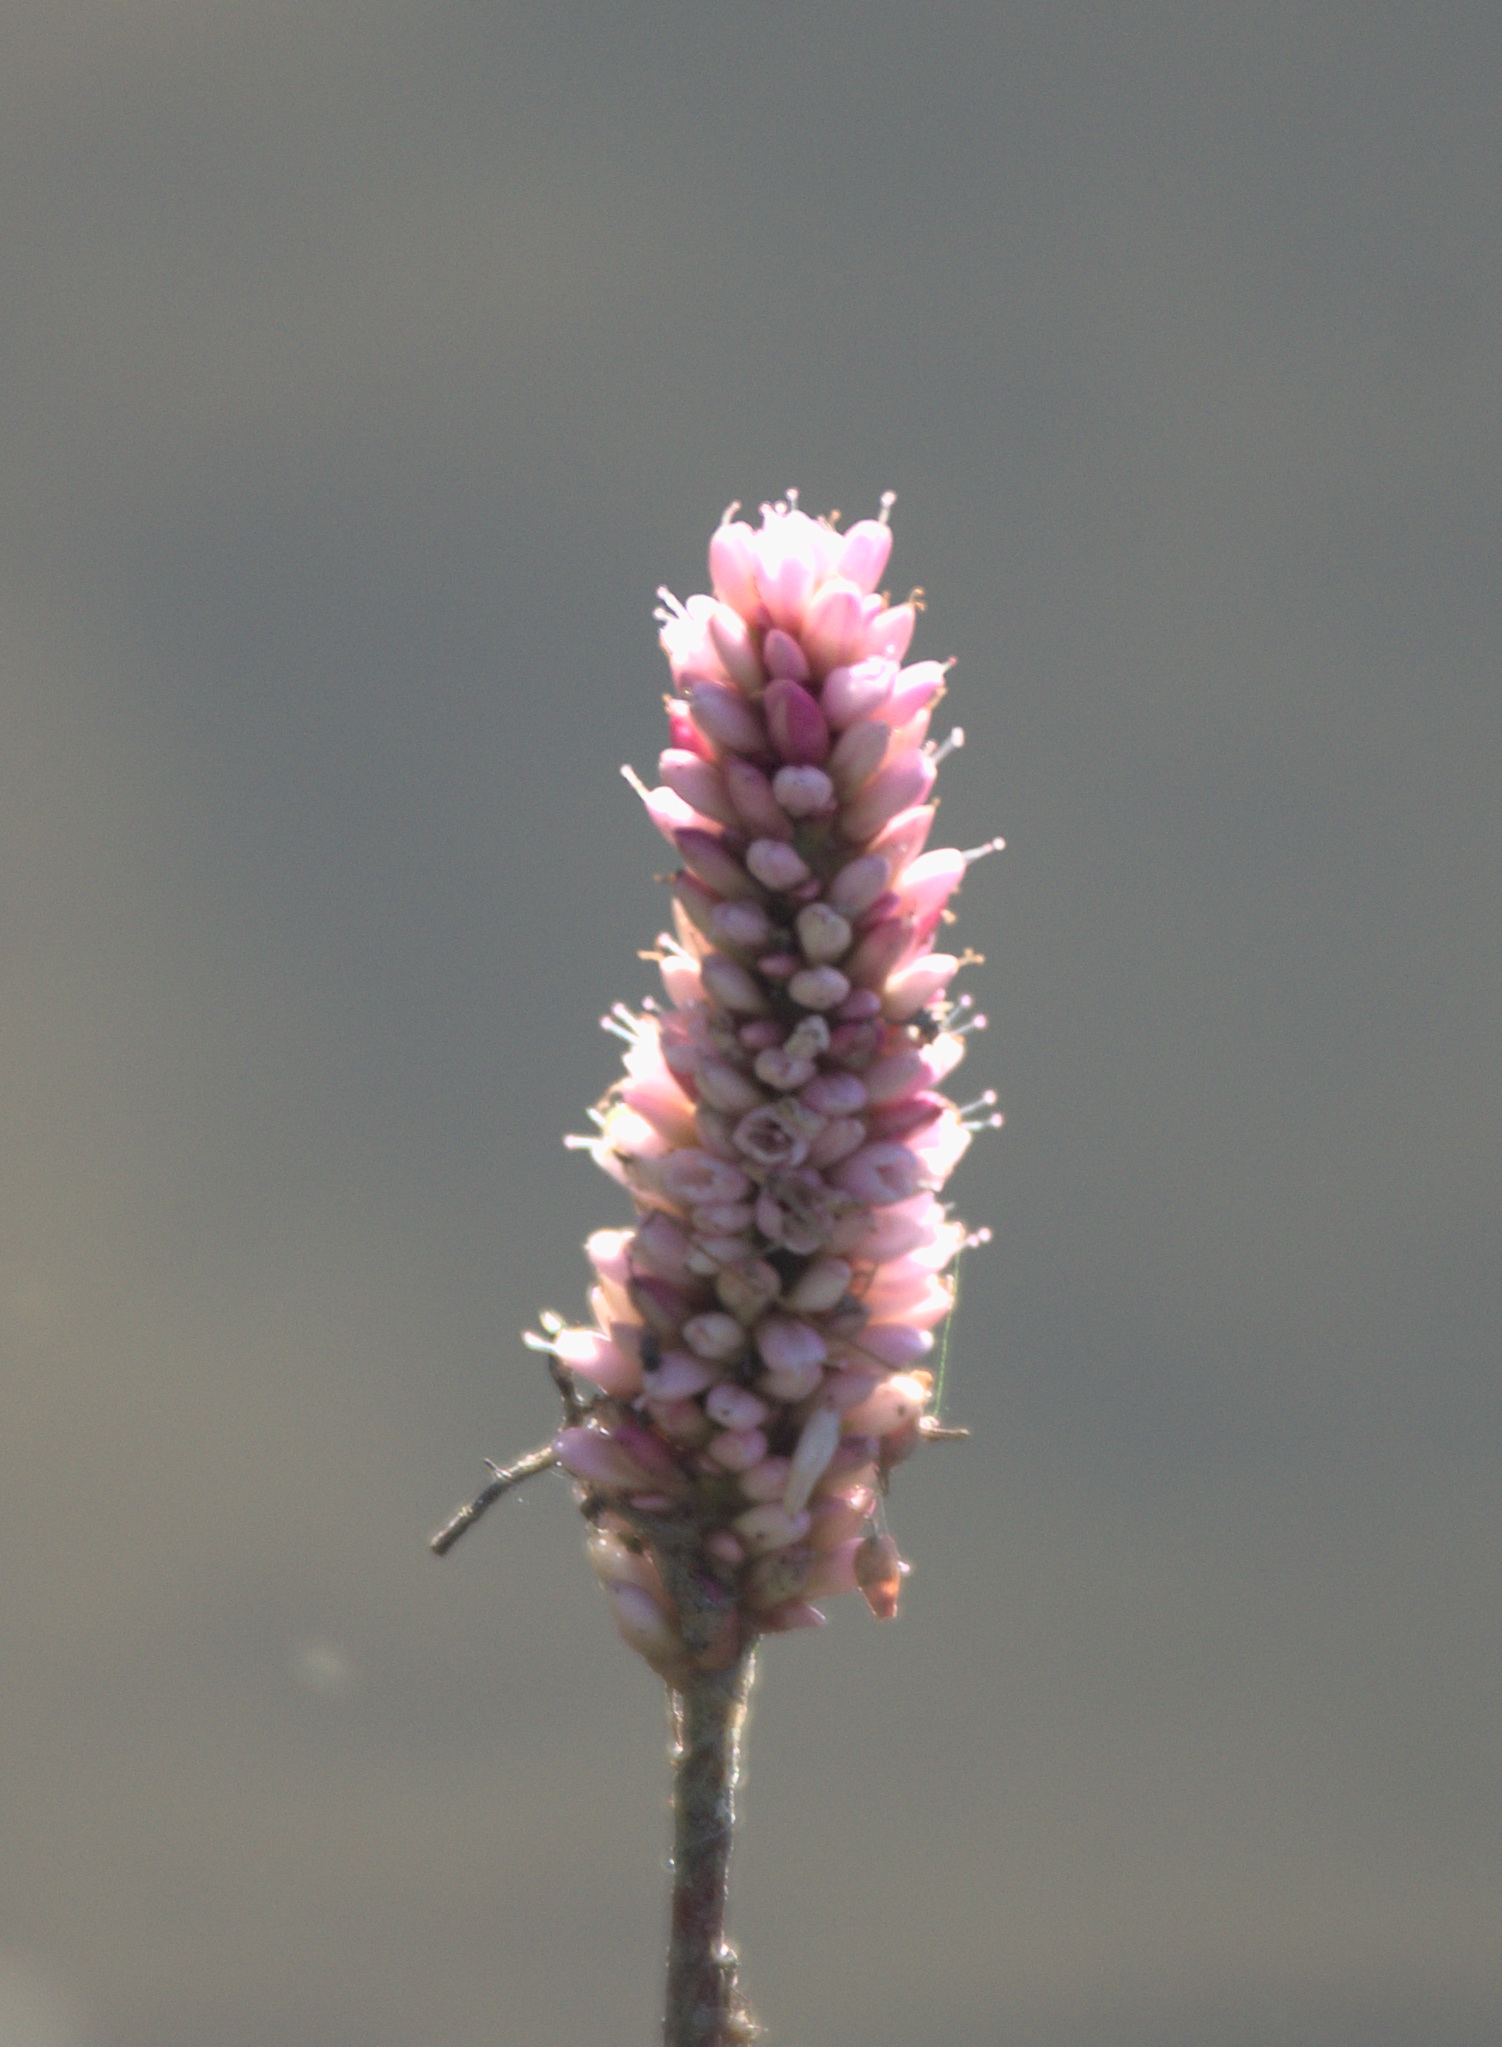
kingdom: Plantae
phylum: Tracheophyta
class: Magnoliopsida
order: Caryophyllales
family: Polygonaceae
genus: Persicaria
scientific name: Persicaria amphibia
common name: Amphibious bistort
